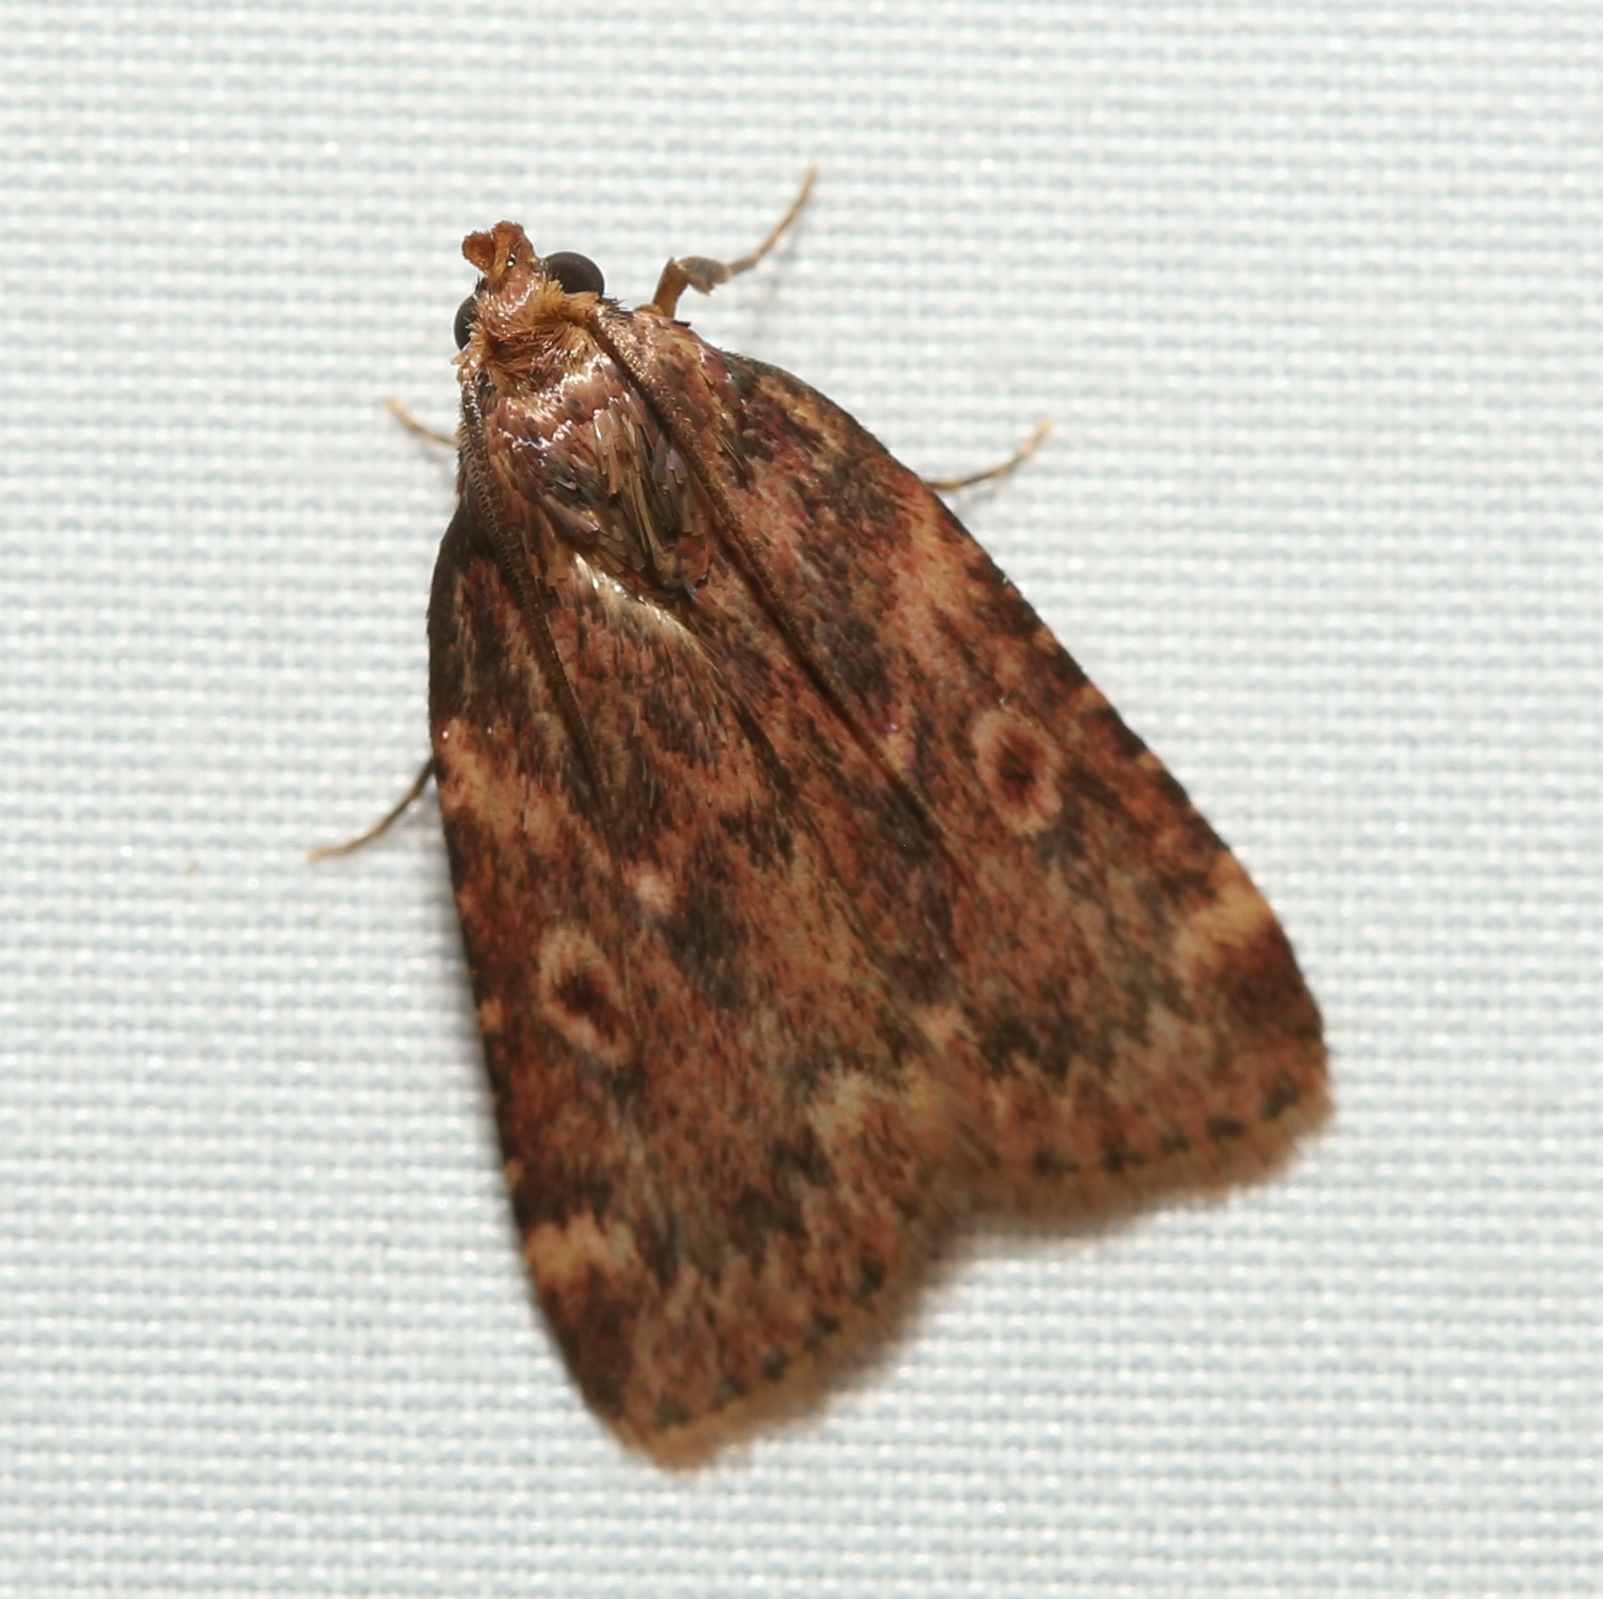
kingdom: Animalia
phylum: Arthropoda
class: Insecta
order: Lepidoptera
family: Pyralidae
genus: Aglossa
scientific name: Aglossa cuprina
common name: Grease moth
